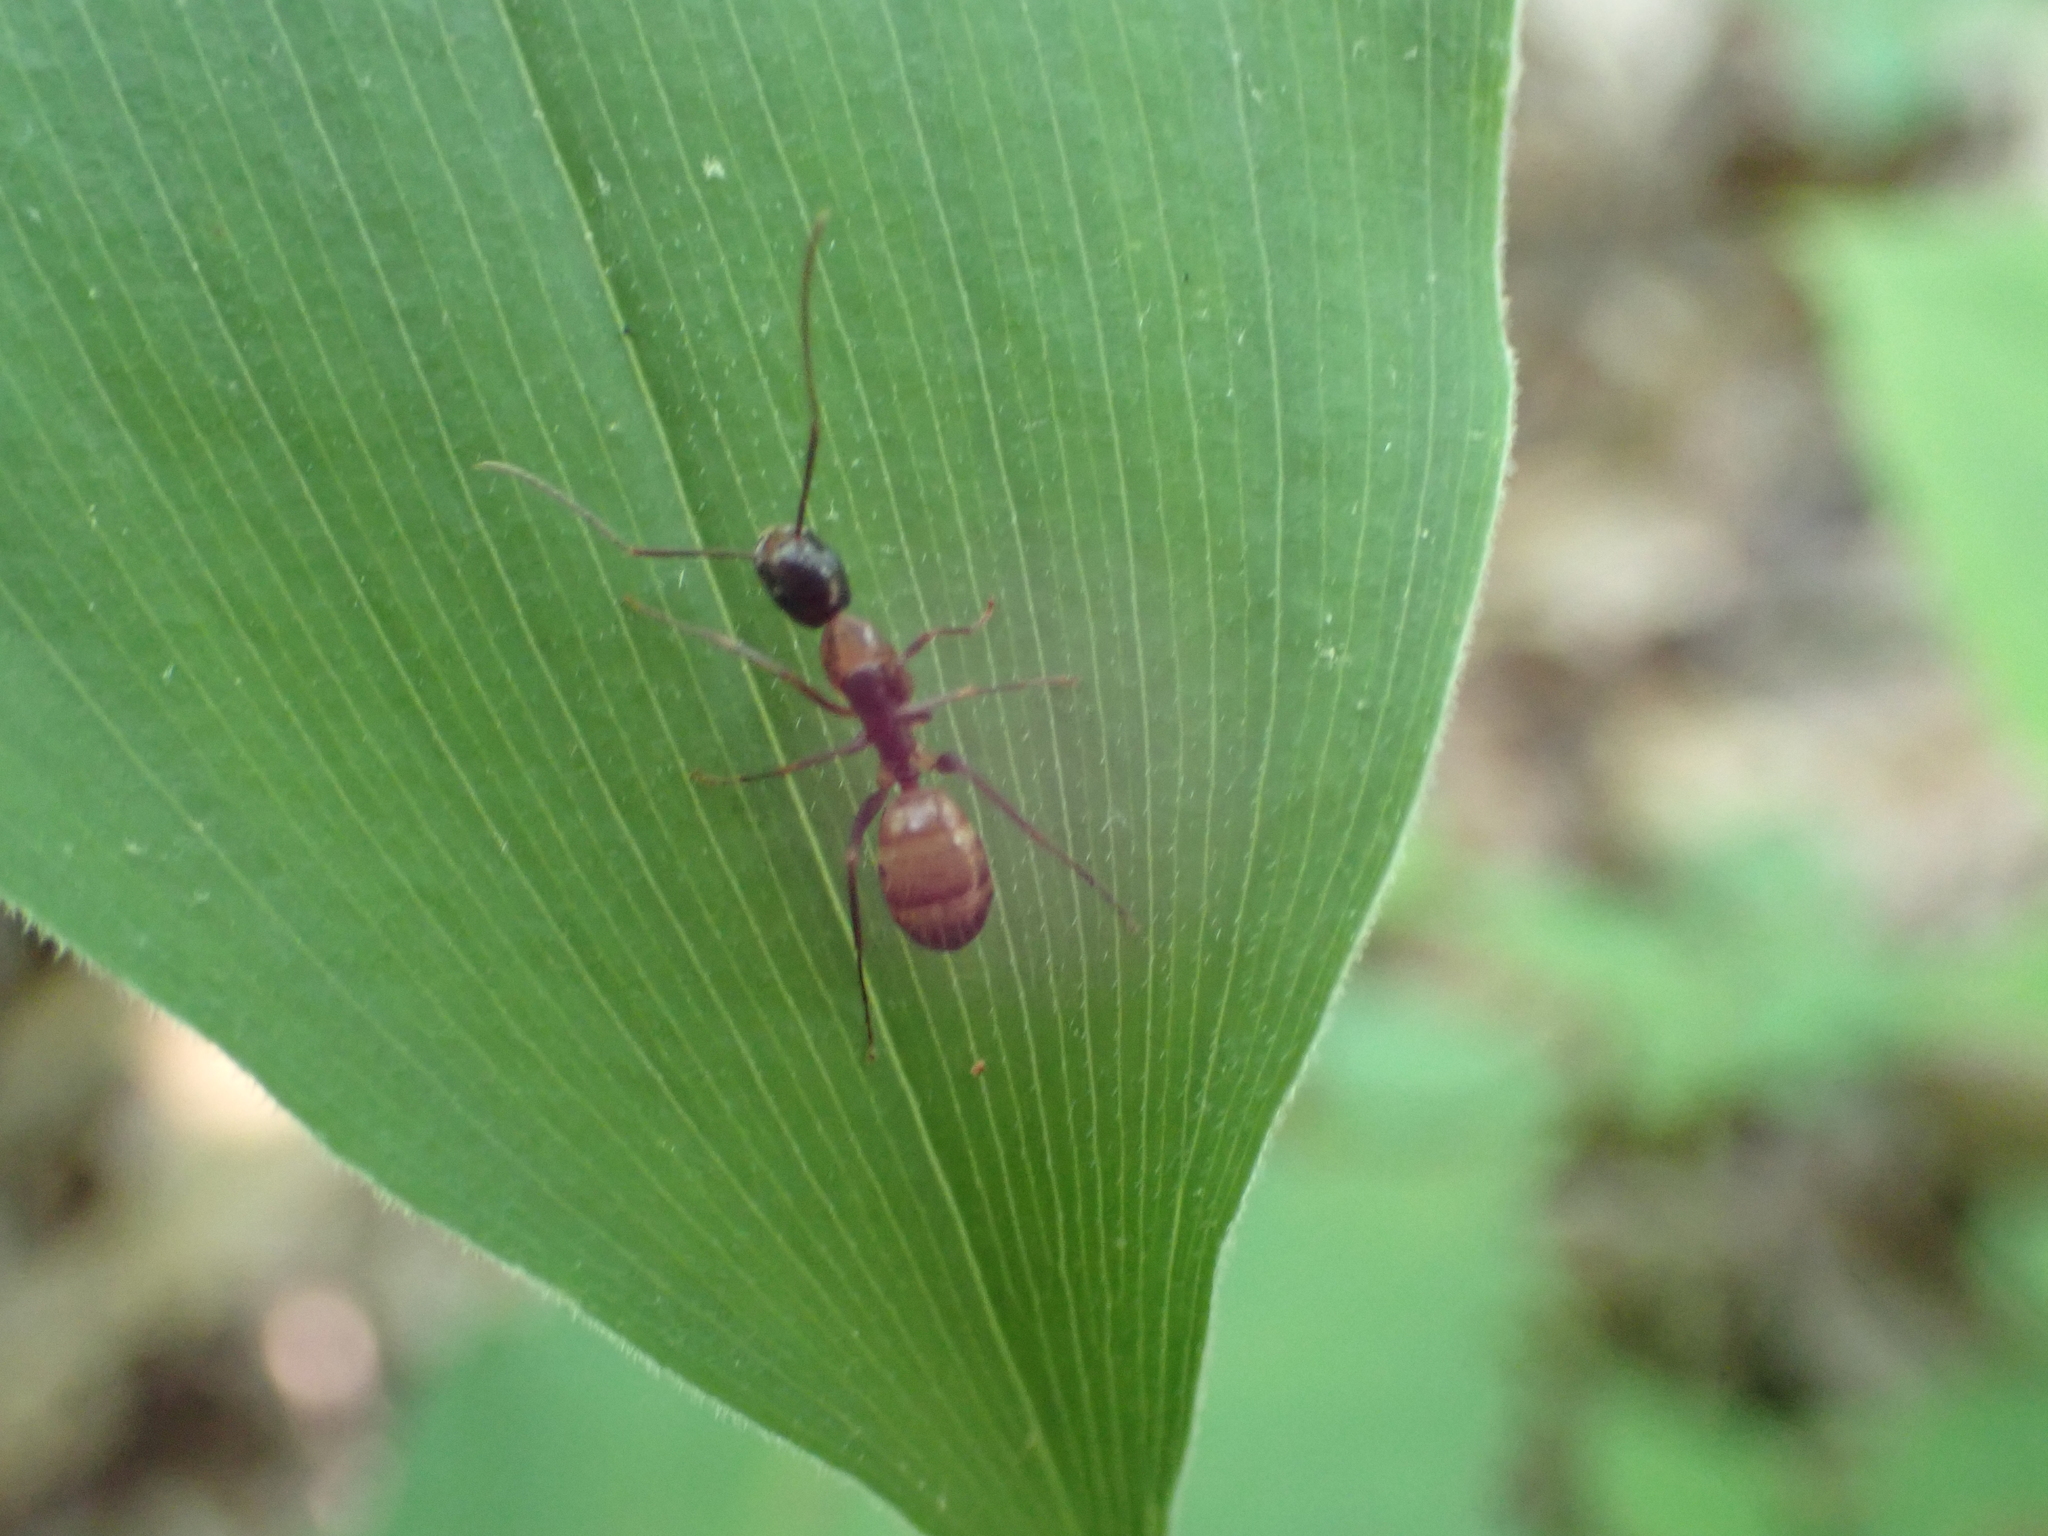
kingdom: Animalia
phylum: Arthropoda
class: Insecta
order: Hymenoptera
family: Formicidae
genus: Camponotus
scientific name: Camponotus americanus
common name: American carpenter ant
